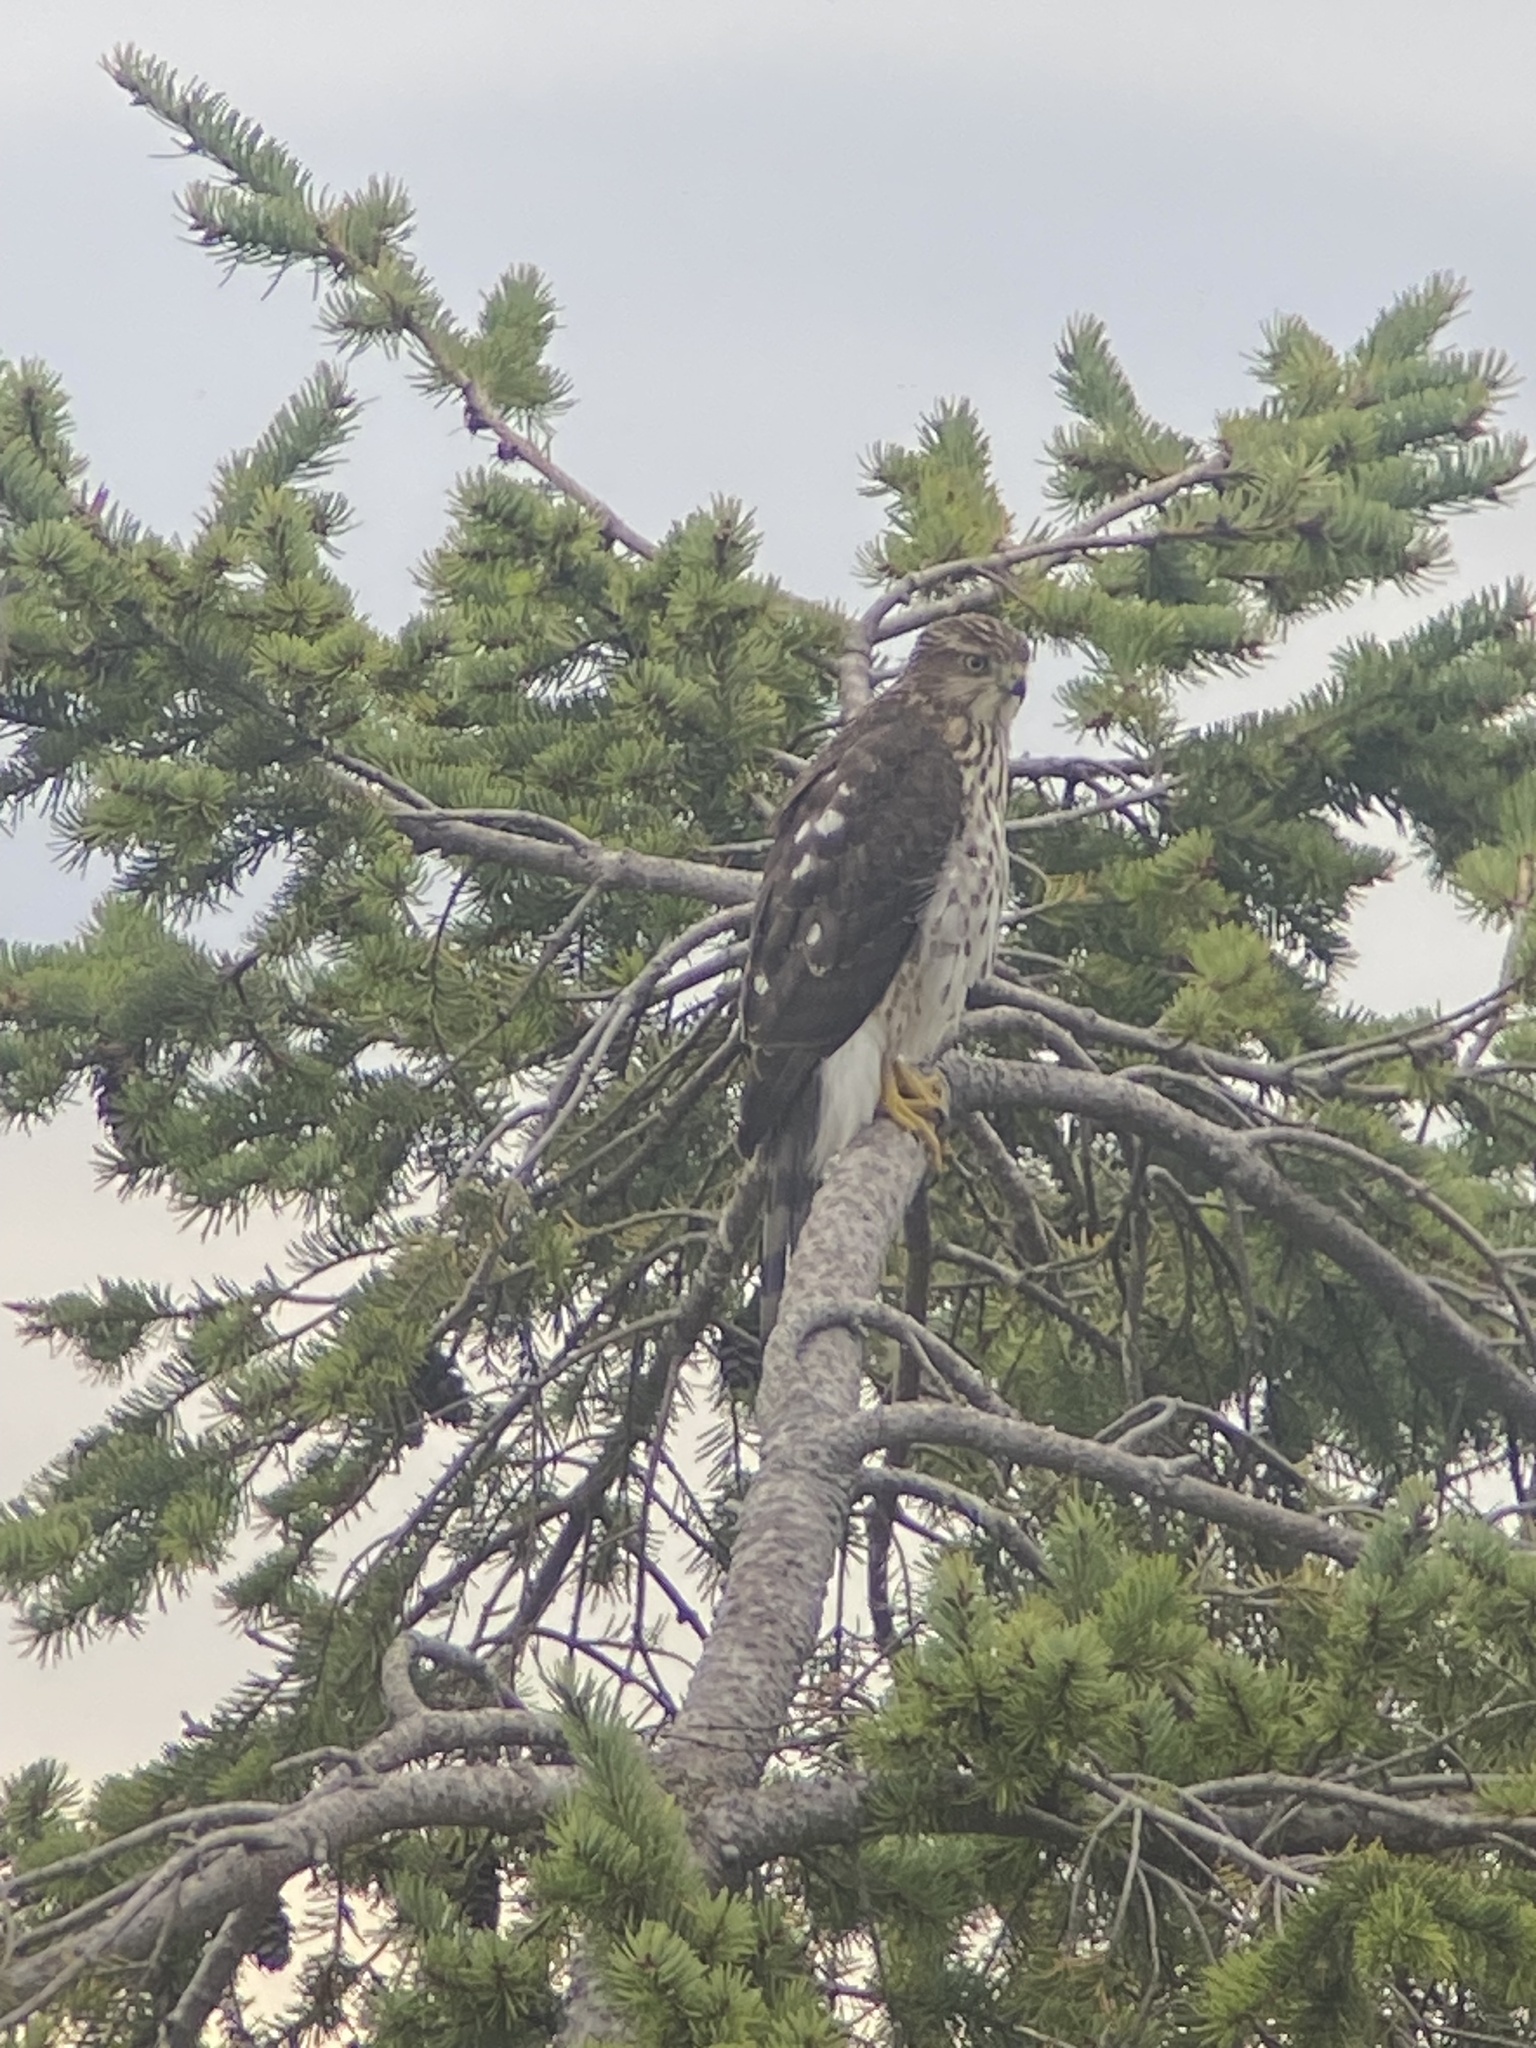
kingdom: Animalia
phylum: Chordata
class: Aves
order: Accipitriformes
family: Accipitridae
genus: Accipiter
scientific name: Accipiter cooperii
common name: Cooper's hawk
